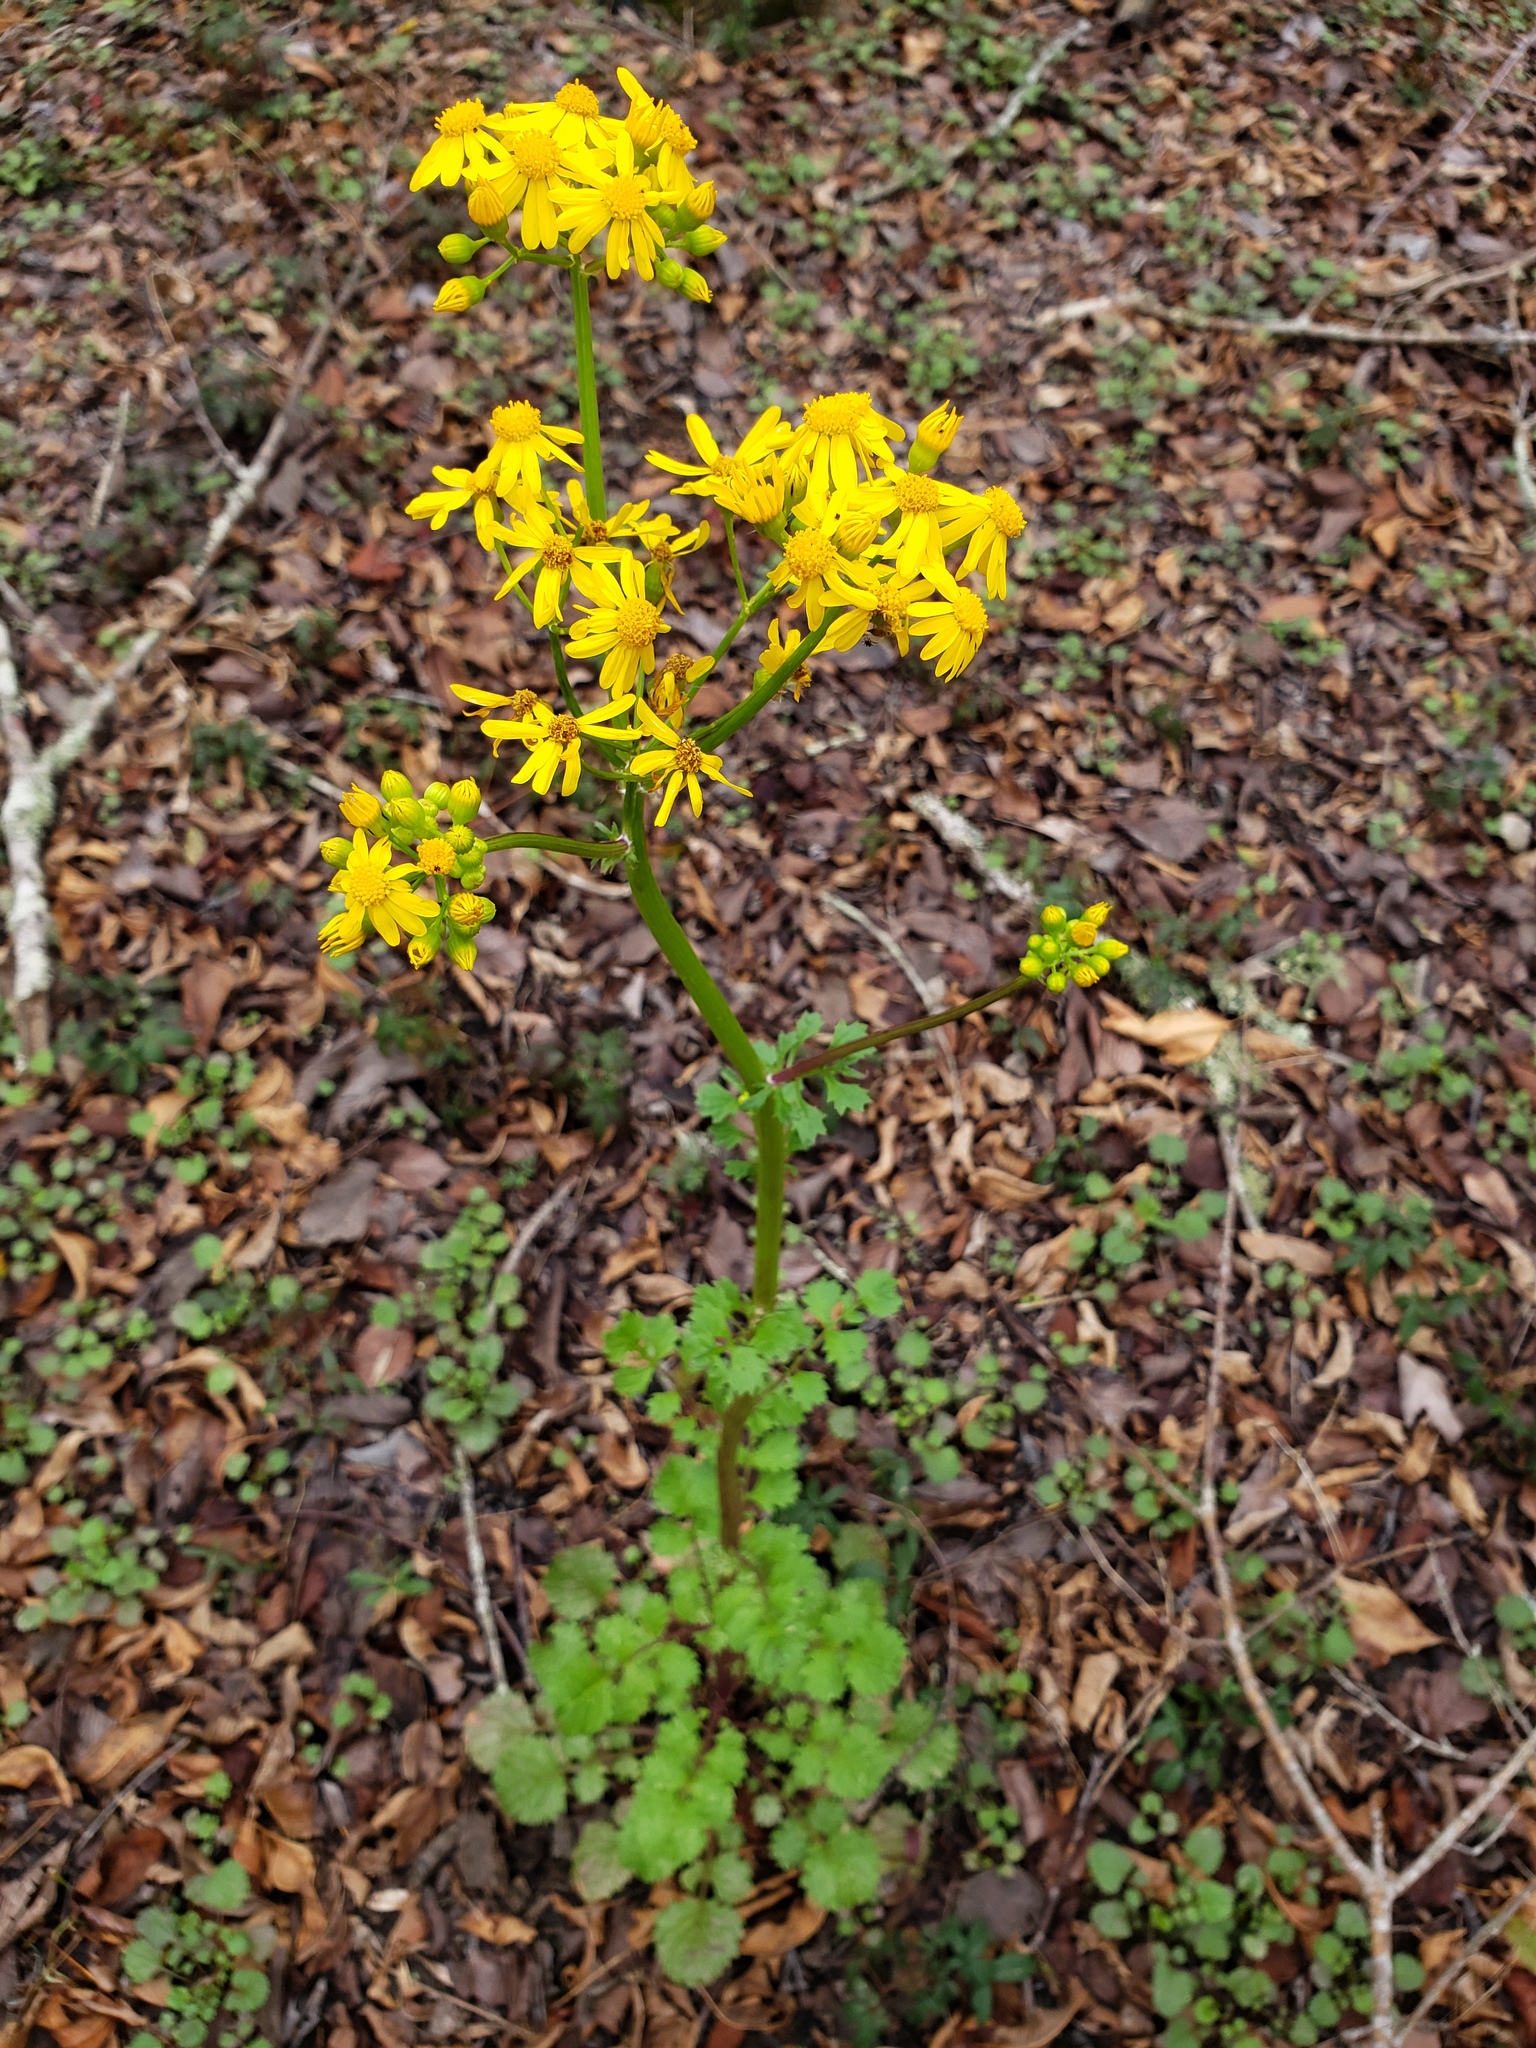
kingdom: Plantae
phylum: Tracheophyta
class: Magnoliopsida
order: Asterales
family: Asteraceae
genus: Packera
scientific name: Packera glabella
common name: Butterweed
